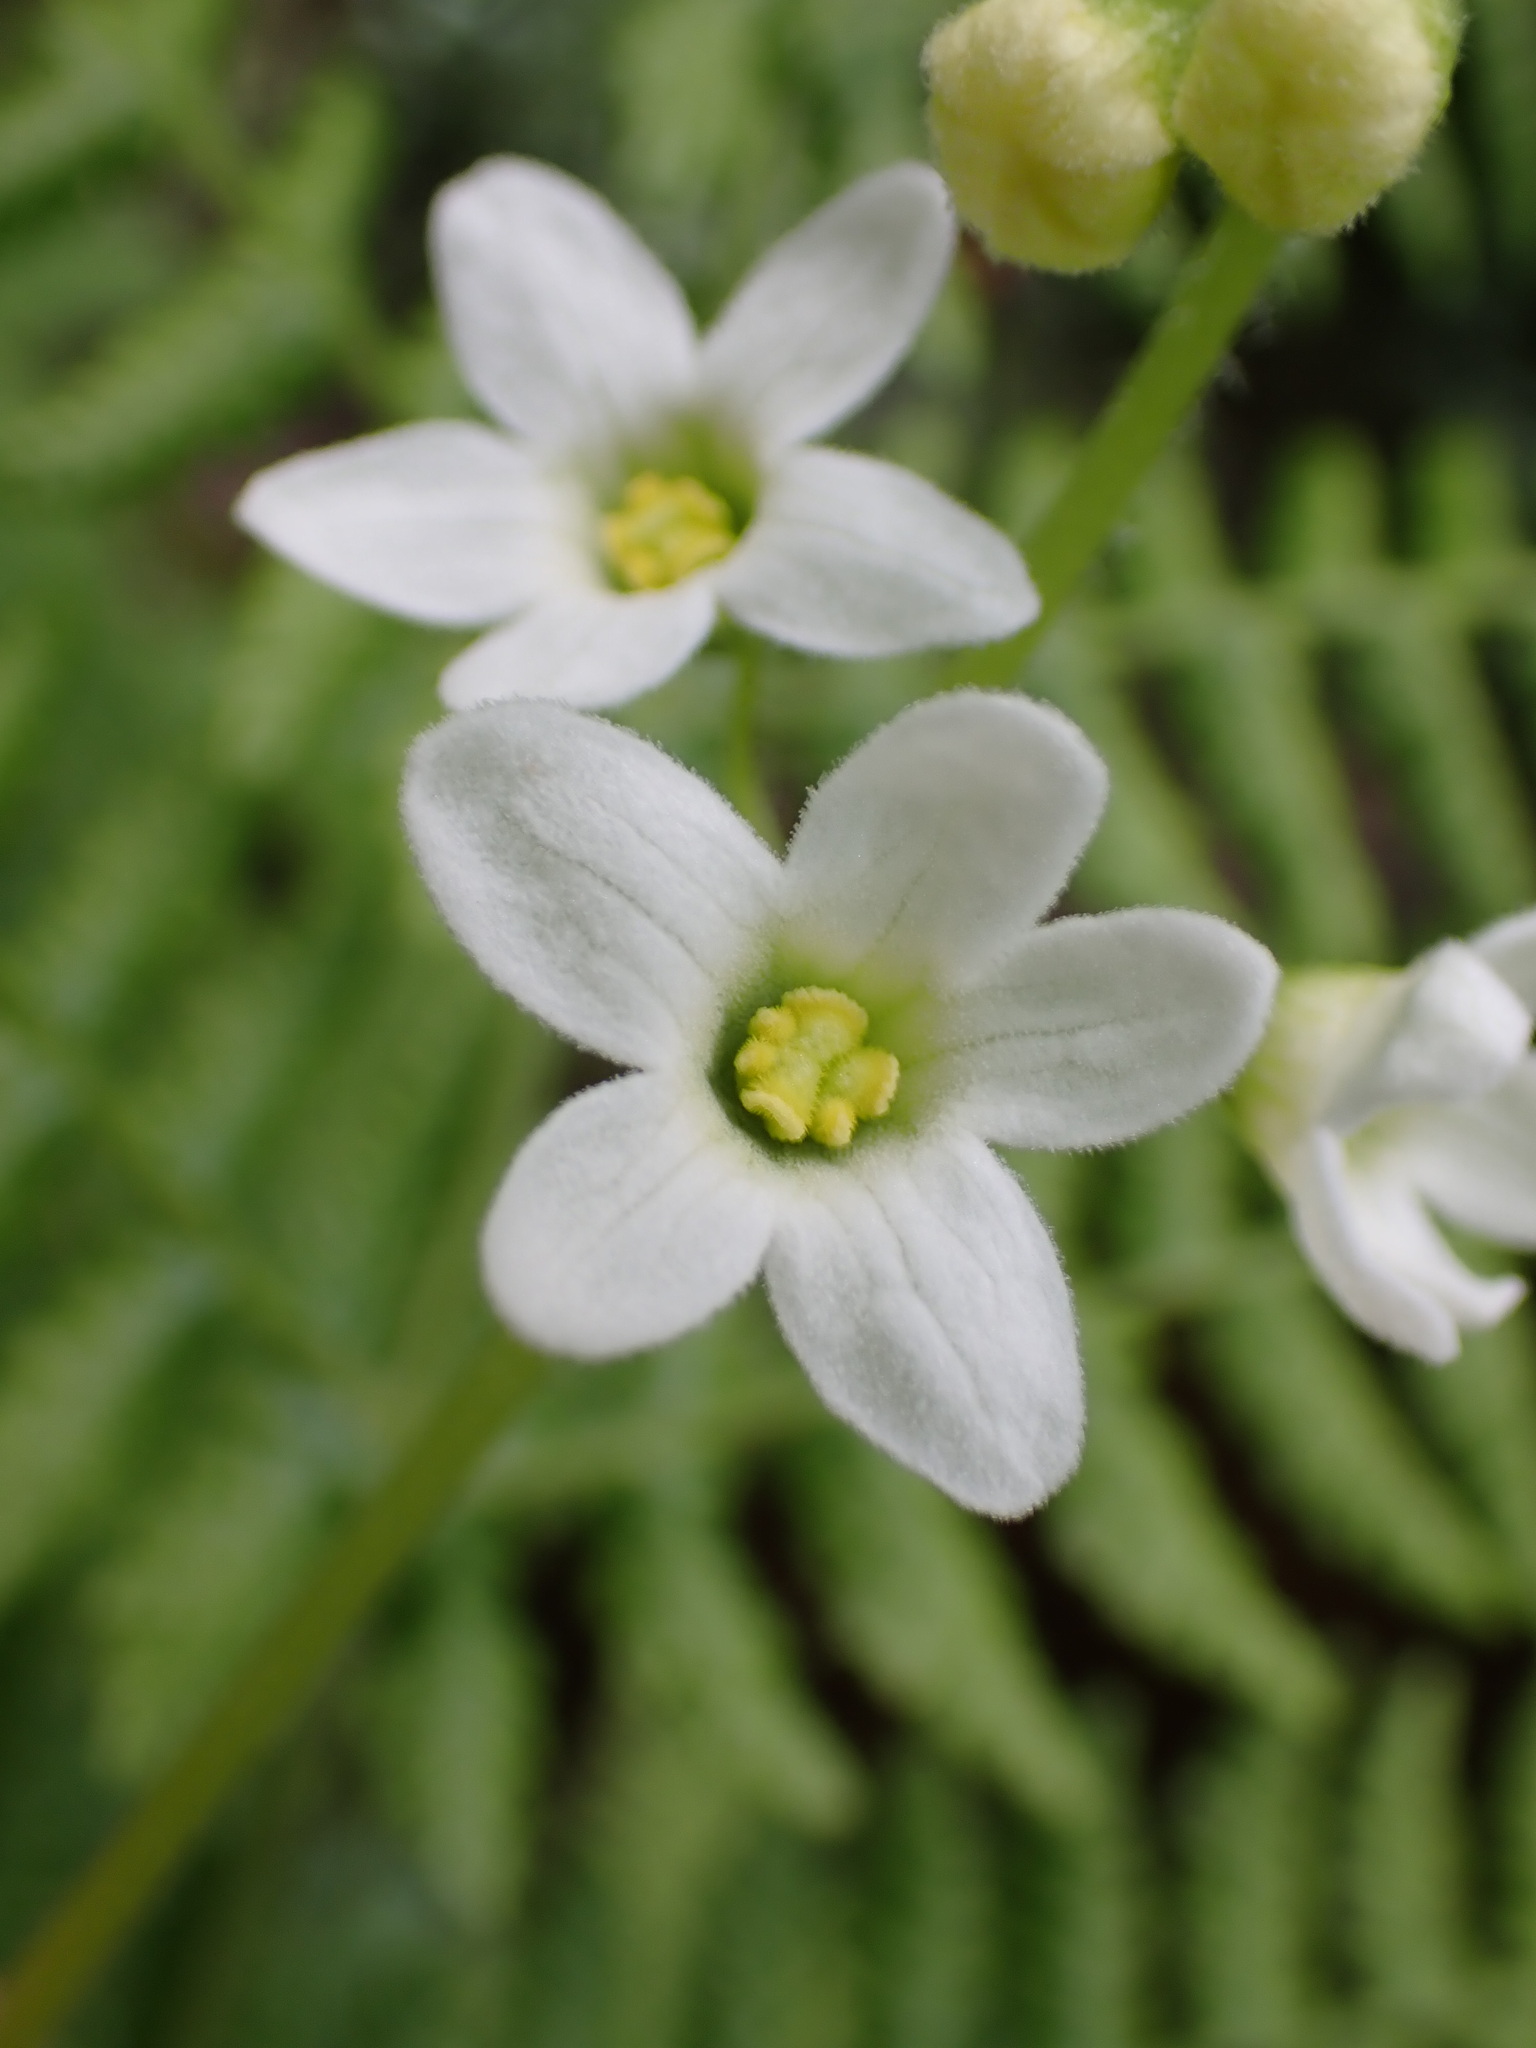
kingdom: Plantae
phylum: Tracheophyta
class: Magnoliopsida
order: Cucurbitales
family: Cucurbitaceae
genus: Marah
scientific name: Marah oregana
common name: Coastal manroot
